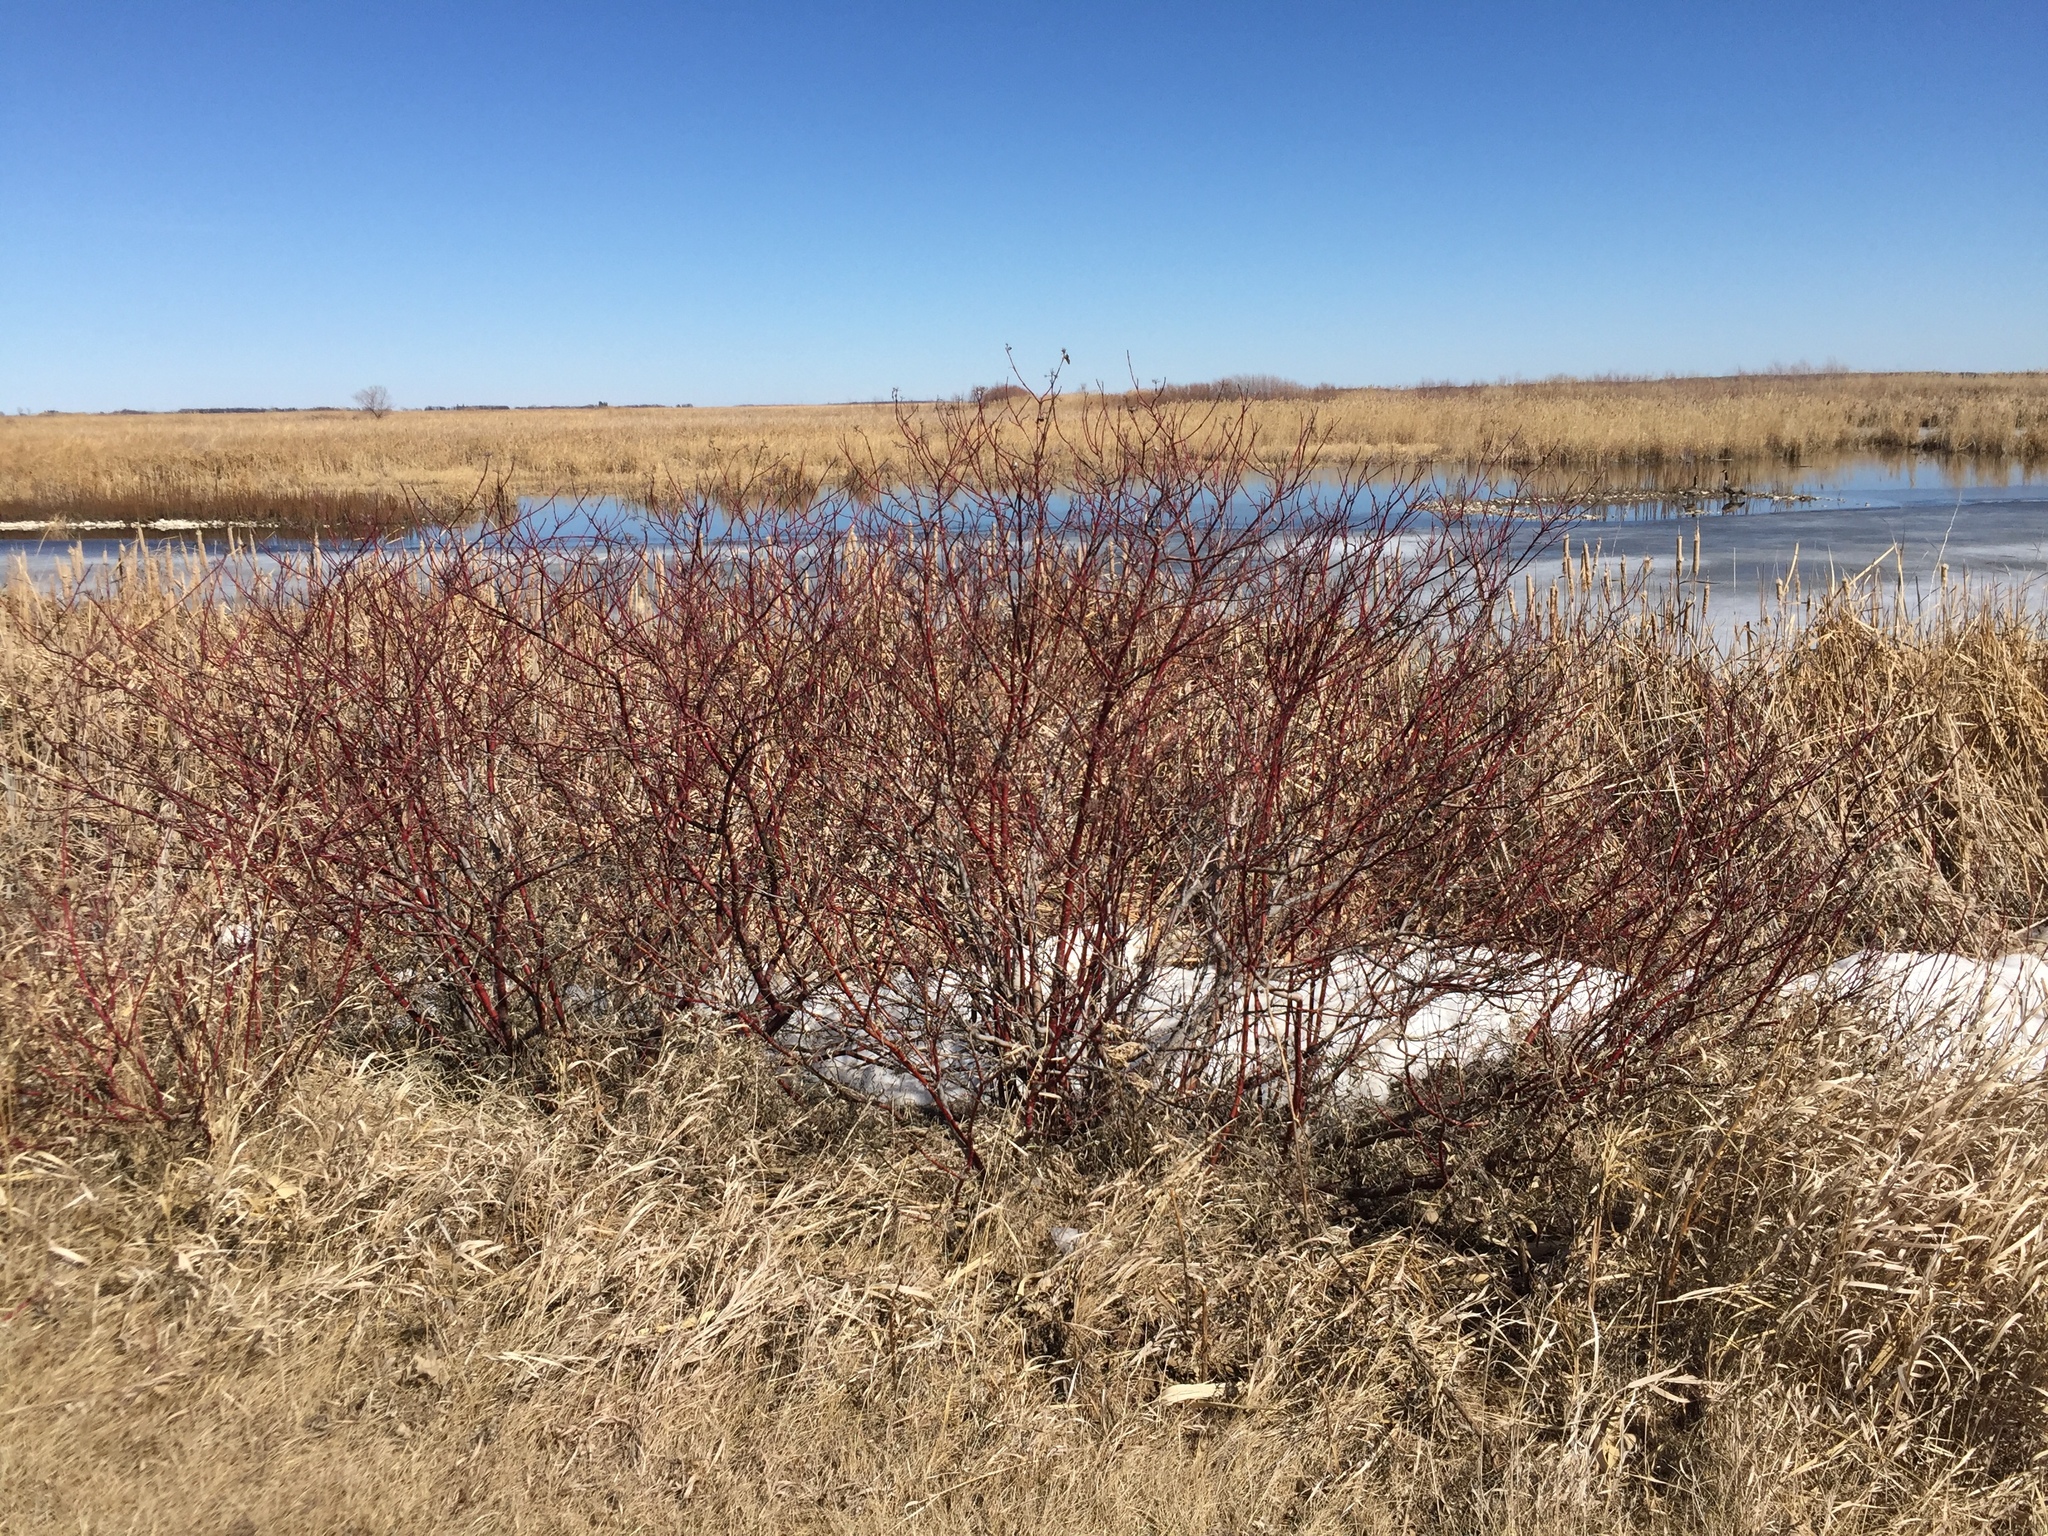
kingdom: Plantae
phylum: Tracheophyta
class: Magnoliopsida
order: Cornales
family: Cornaceae
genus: Cornus
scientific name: Cornus sericea
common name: Red-osier dogwood
